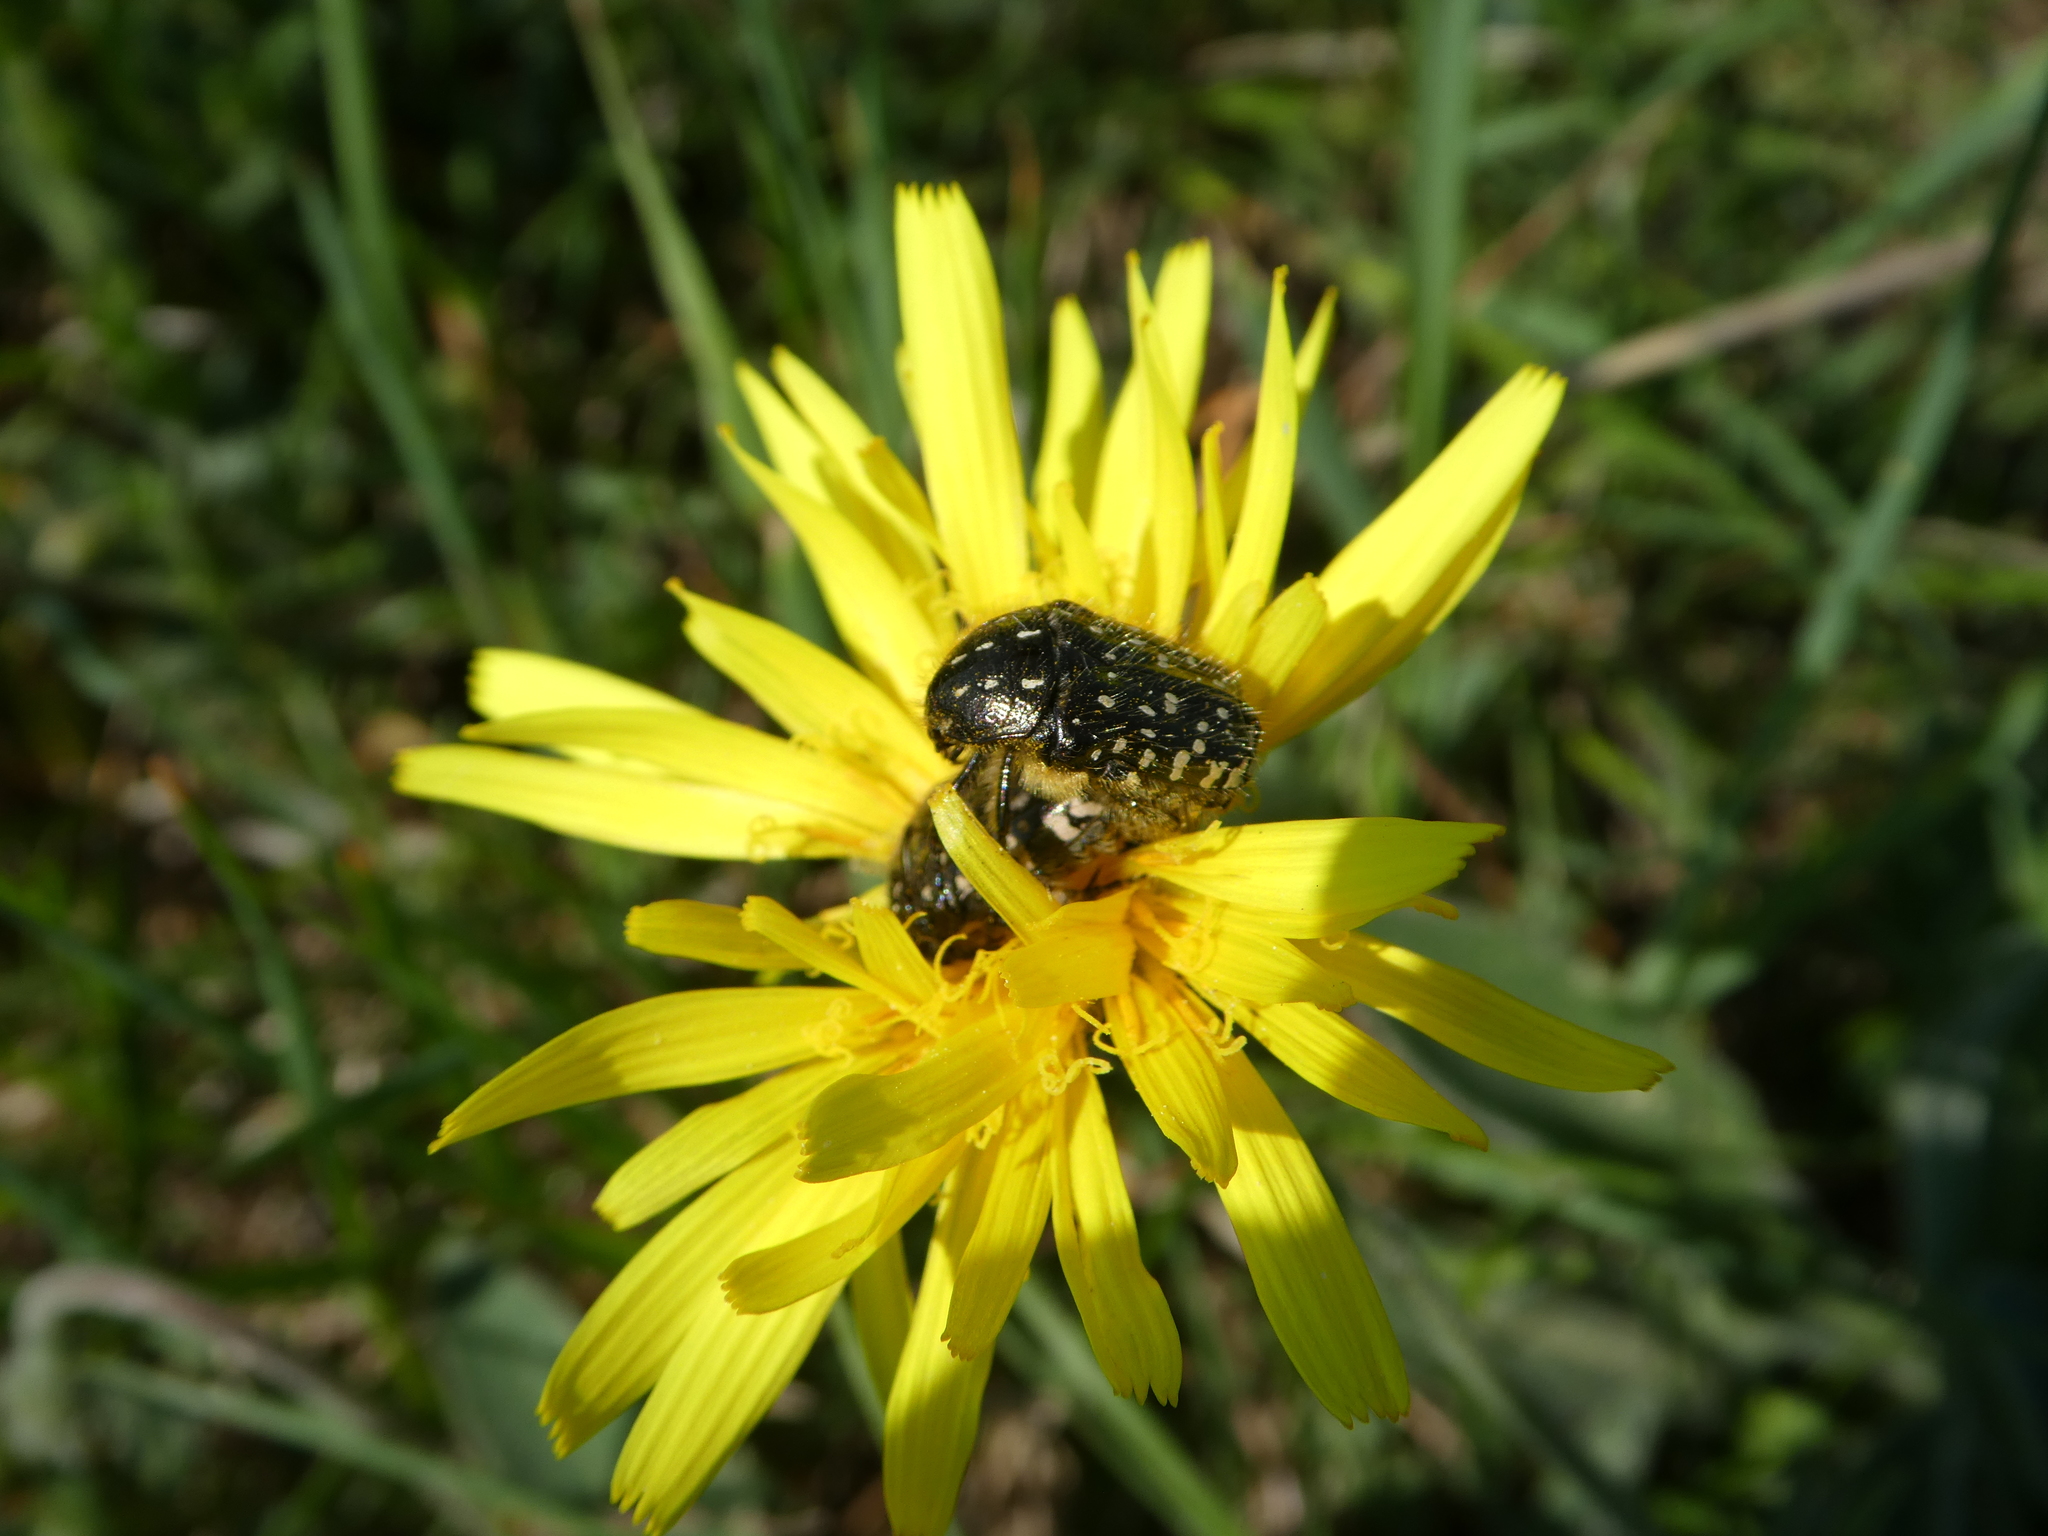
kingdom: Animalia
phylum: Arthropoda
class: Insecta
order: Coleoptera
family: Scarabaeidae
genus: Oxythyrea
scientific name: Oxythyrea funesta
